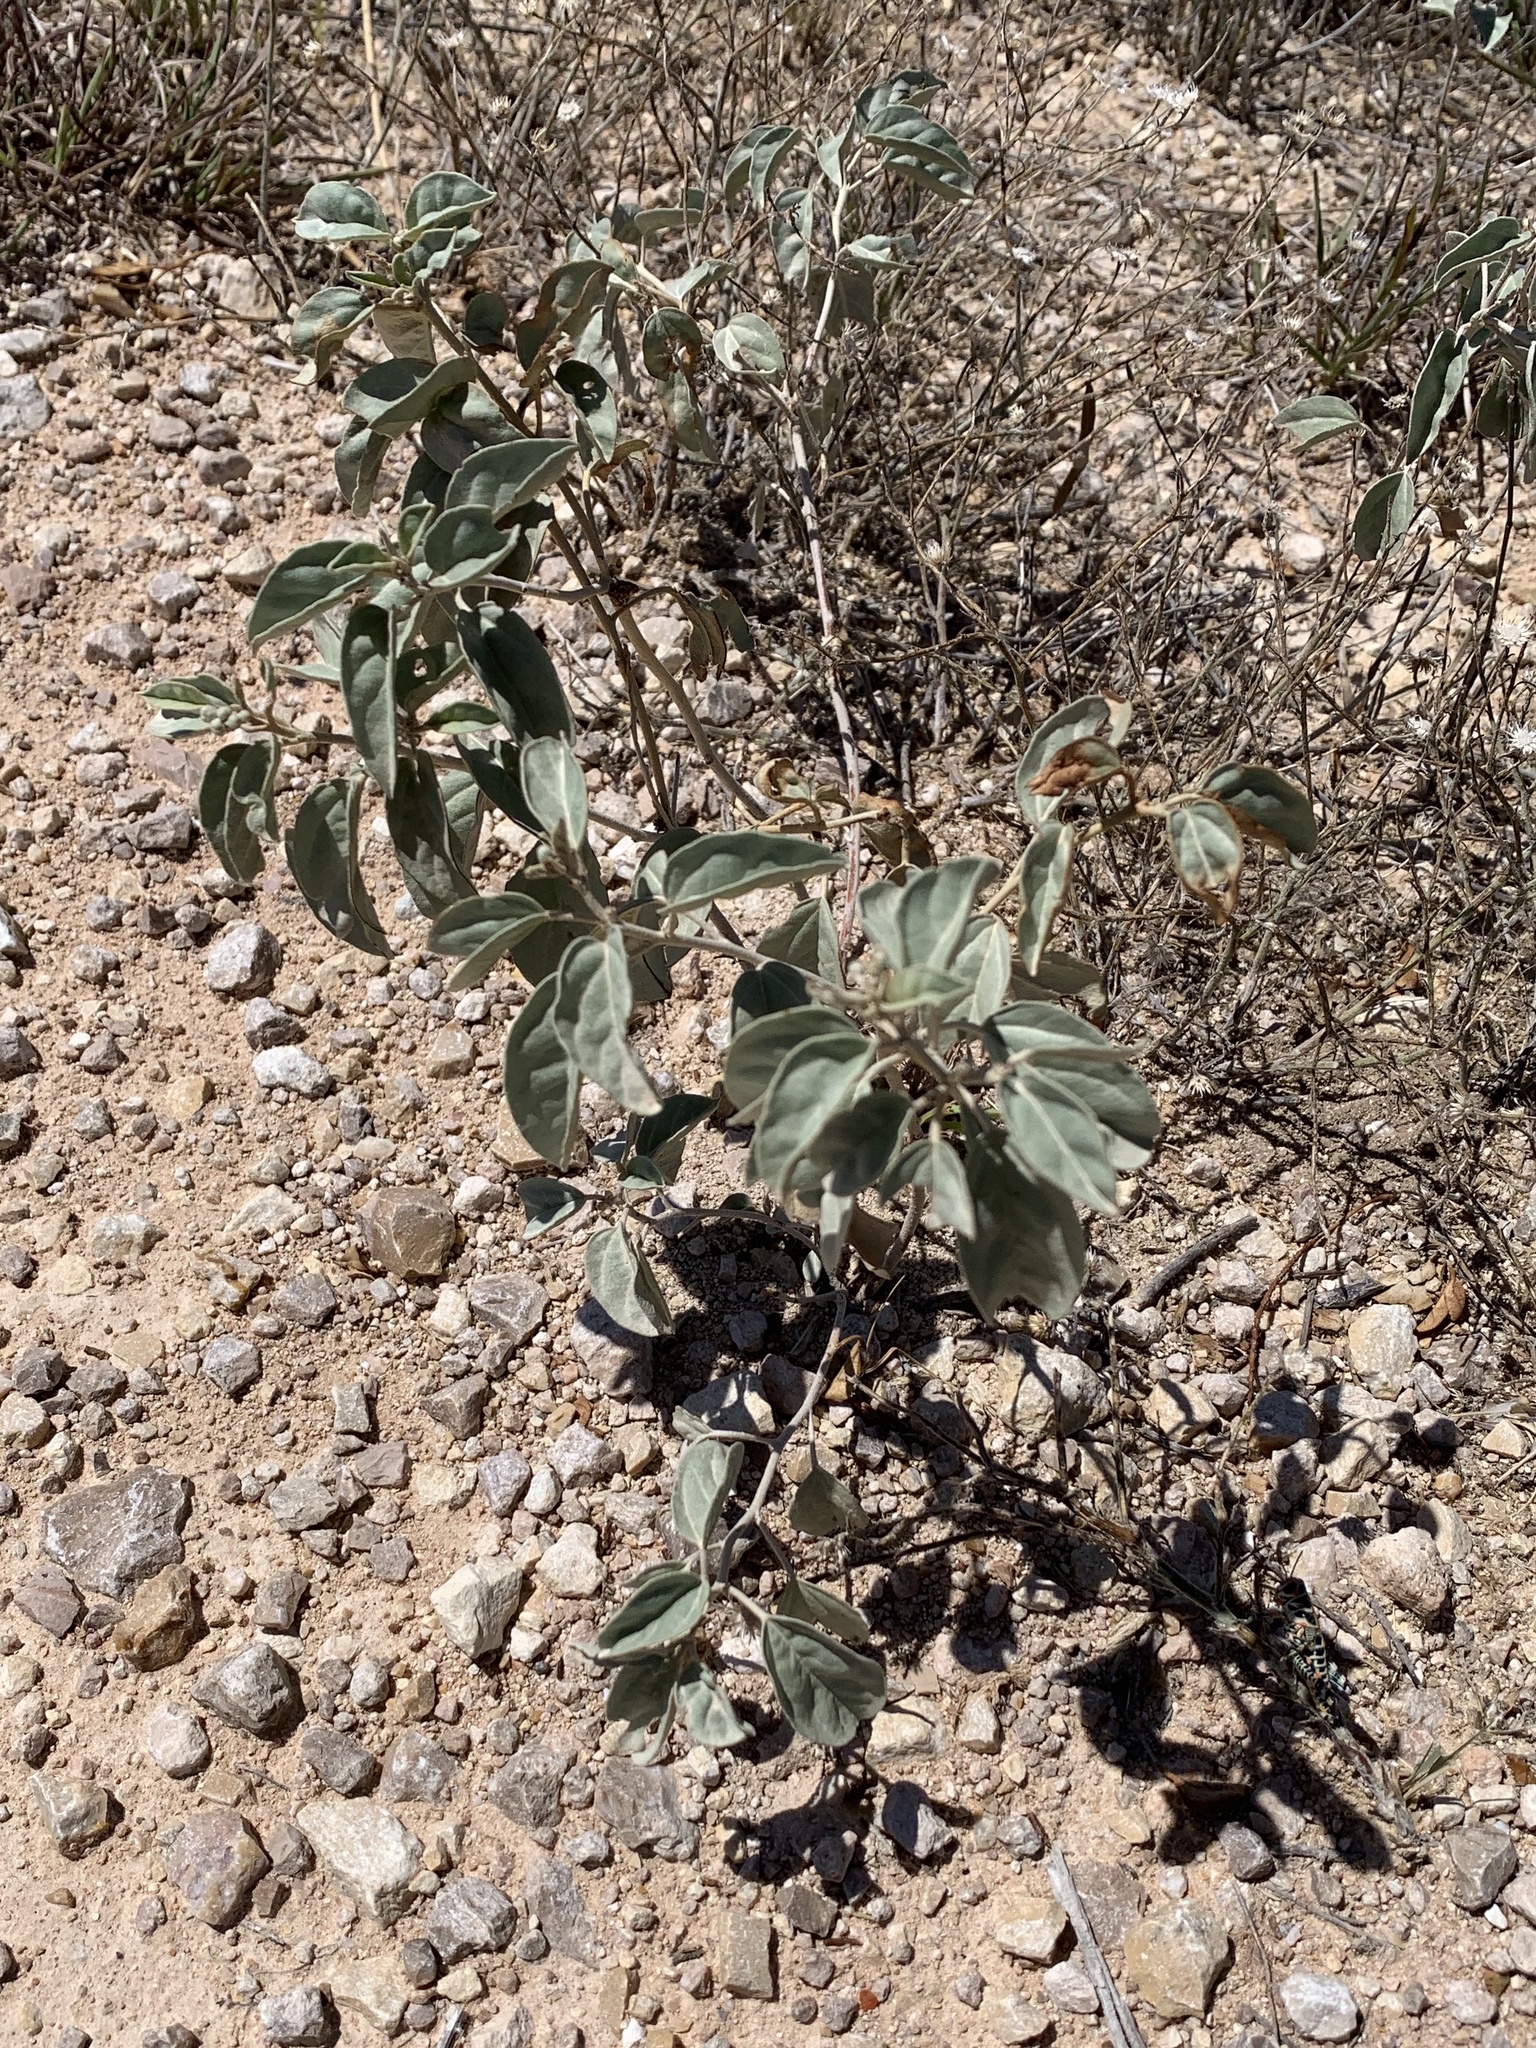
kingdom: Plantae
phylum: Tracheophyta
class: Magnoliopsida
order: Malpighiales
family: Euphorbiaceae
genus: Croton
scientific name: Croton pottsii
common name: Leatherweed
